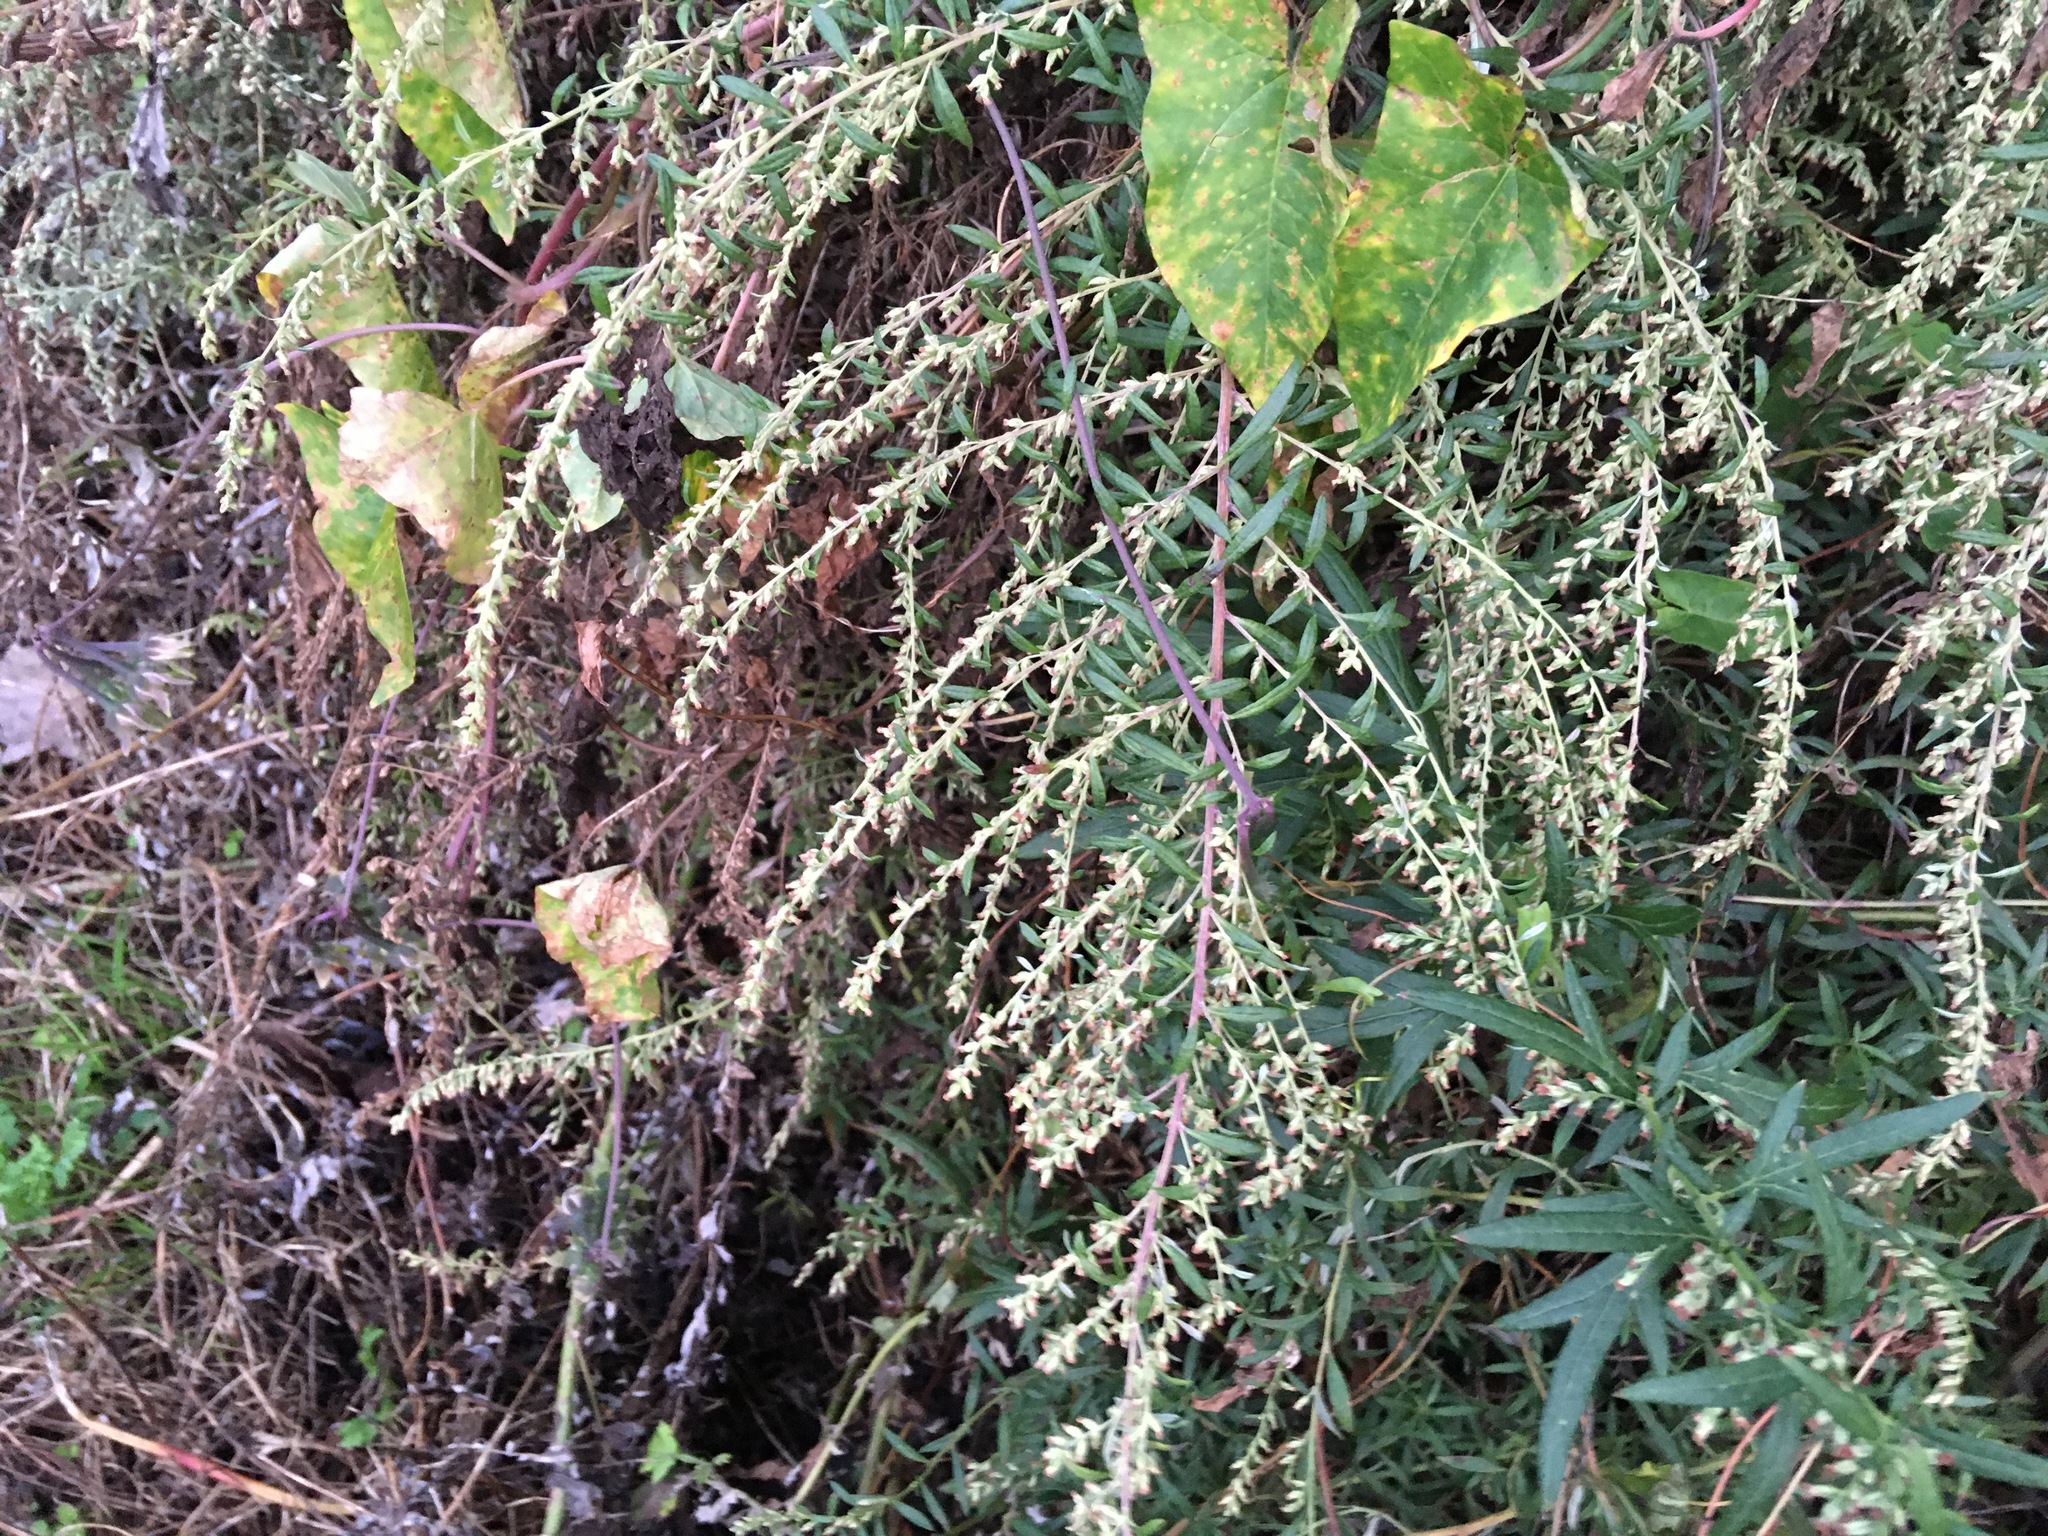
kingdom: Plantae
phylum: Tracheophyta
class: Magnoliopsida
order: Asterales
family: Asteraceae
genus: Artemisia
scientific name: Artemisia vulgaris
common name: Mugwort
